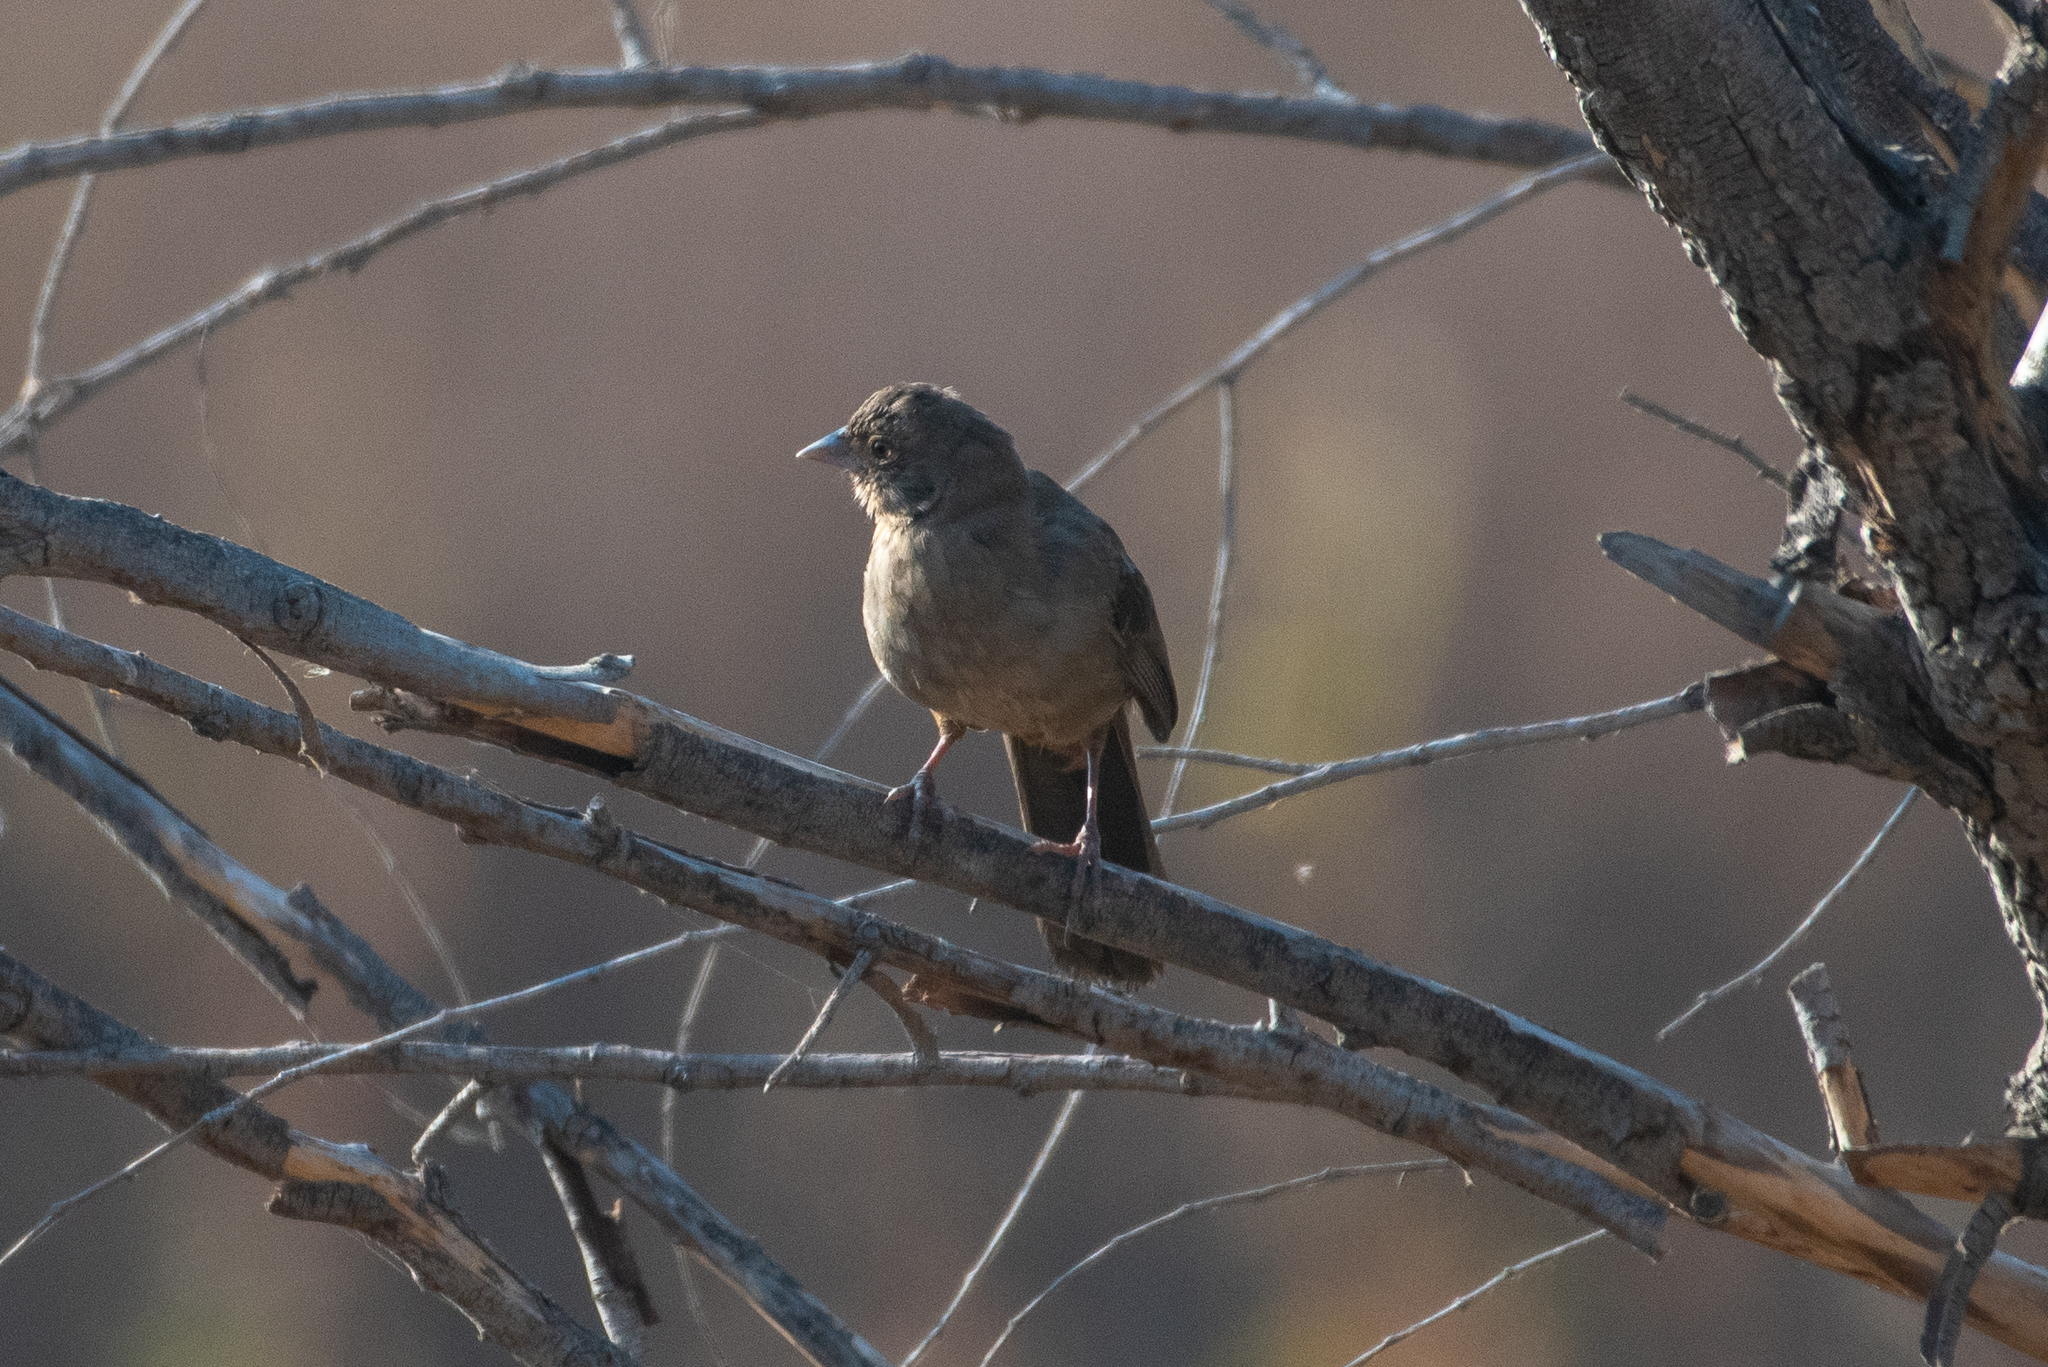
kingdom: Animalia
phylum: Chordata
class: Aves
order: Passeriformes
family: Passerellidae
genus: Melozone
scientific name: Melozone crissalis
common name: California towhee
